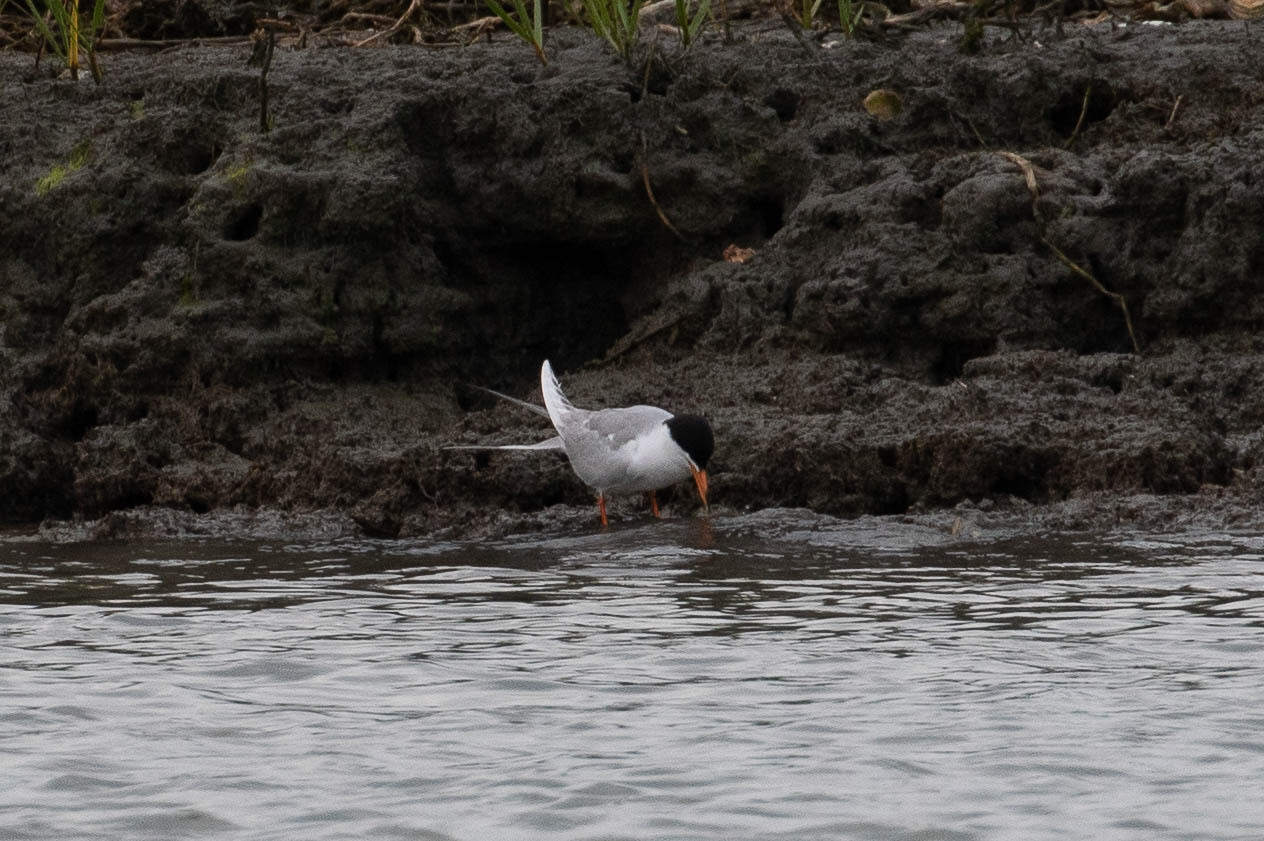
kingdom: Animalia
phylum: Chordata
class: Aves
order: Charadriiformes
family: Laridae
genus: Sterna
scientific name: Sterna forsteri
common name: Forster's tern
